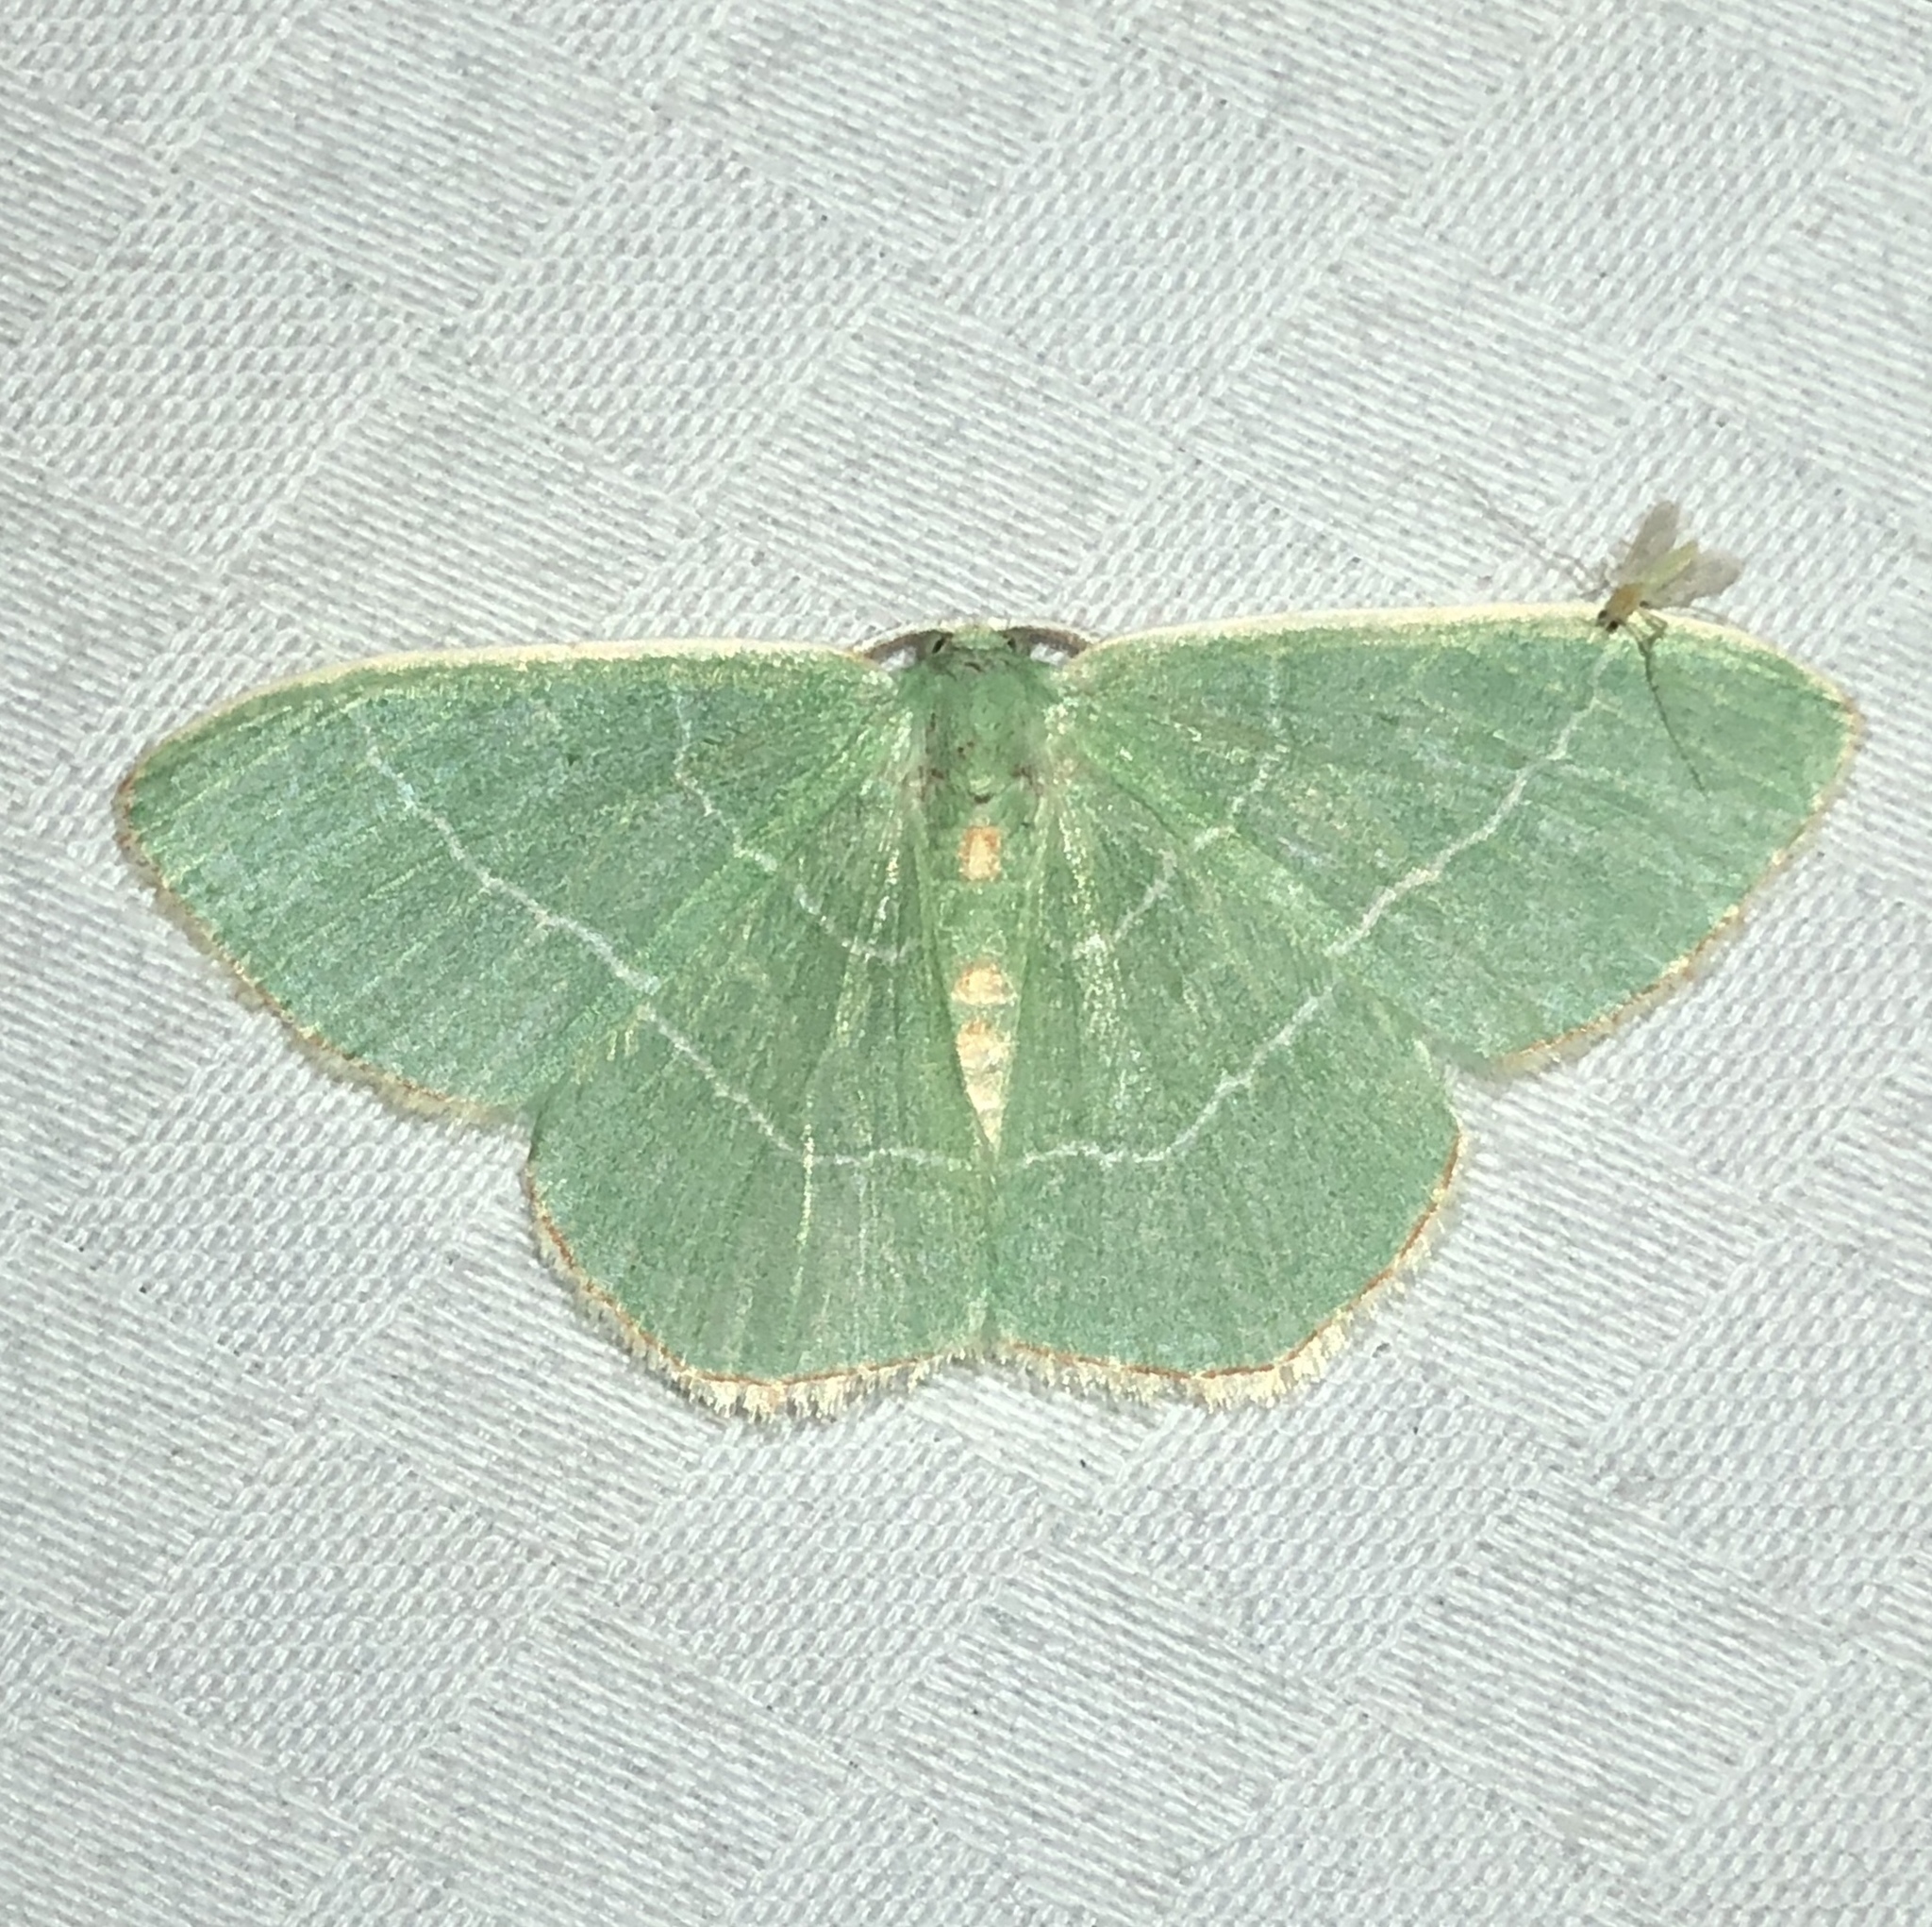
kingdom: Animalia
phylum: Arthropoda
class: Insecta
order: Lepidoptera
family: Geometridae
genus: Nemoria
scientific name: Nemoria bistriaria
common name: Red-fringed emerald
